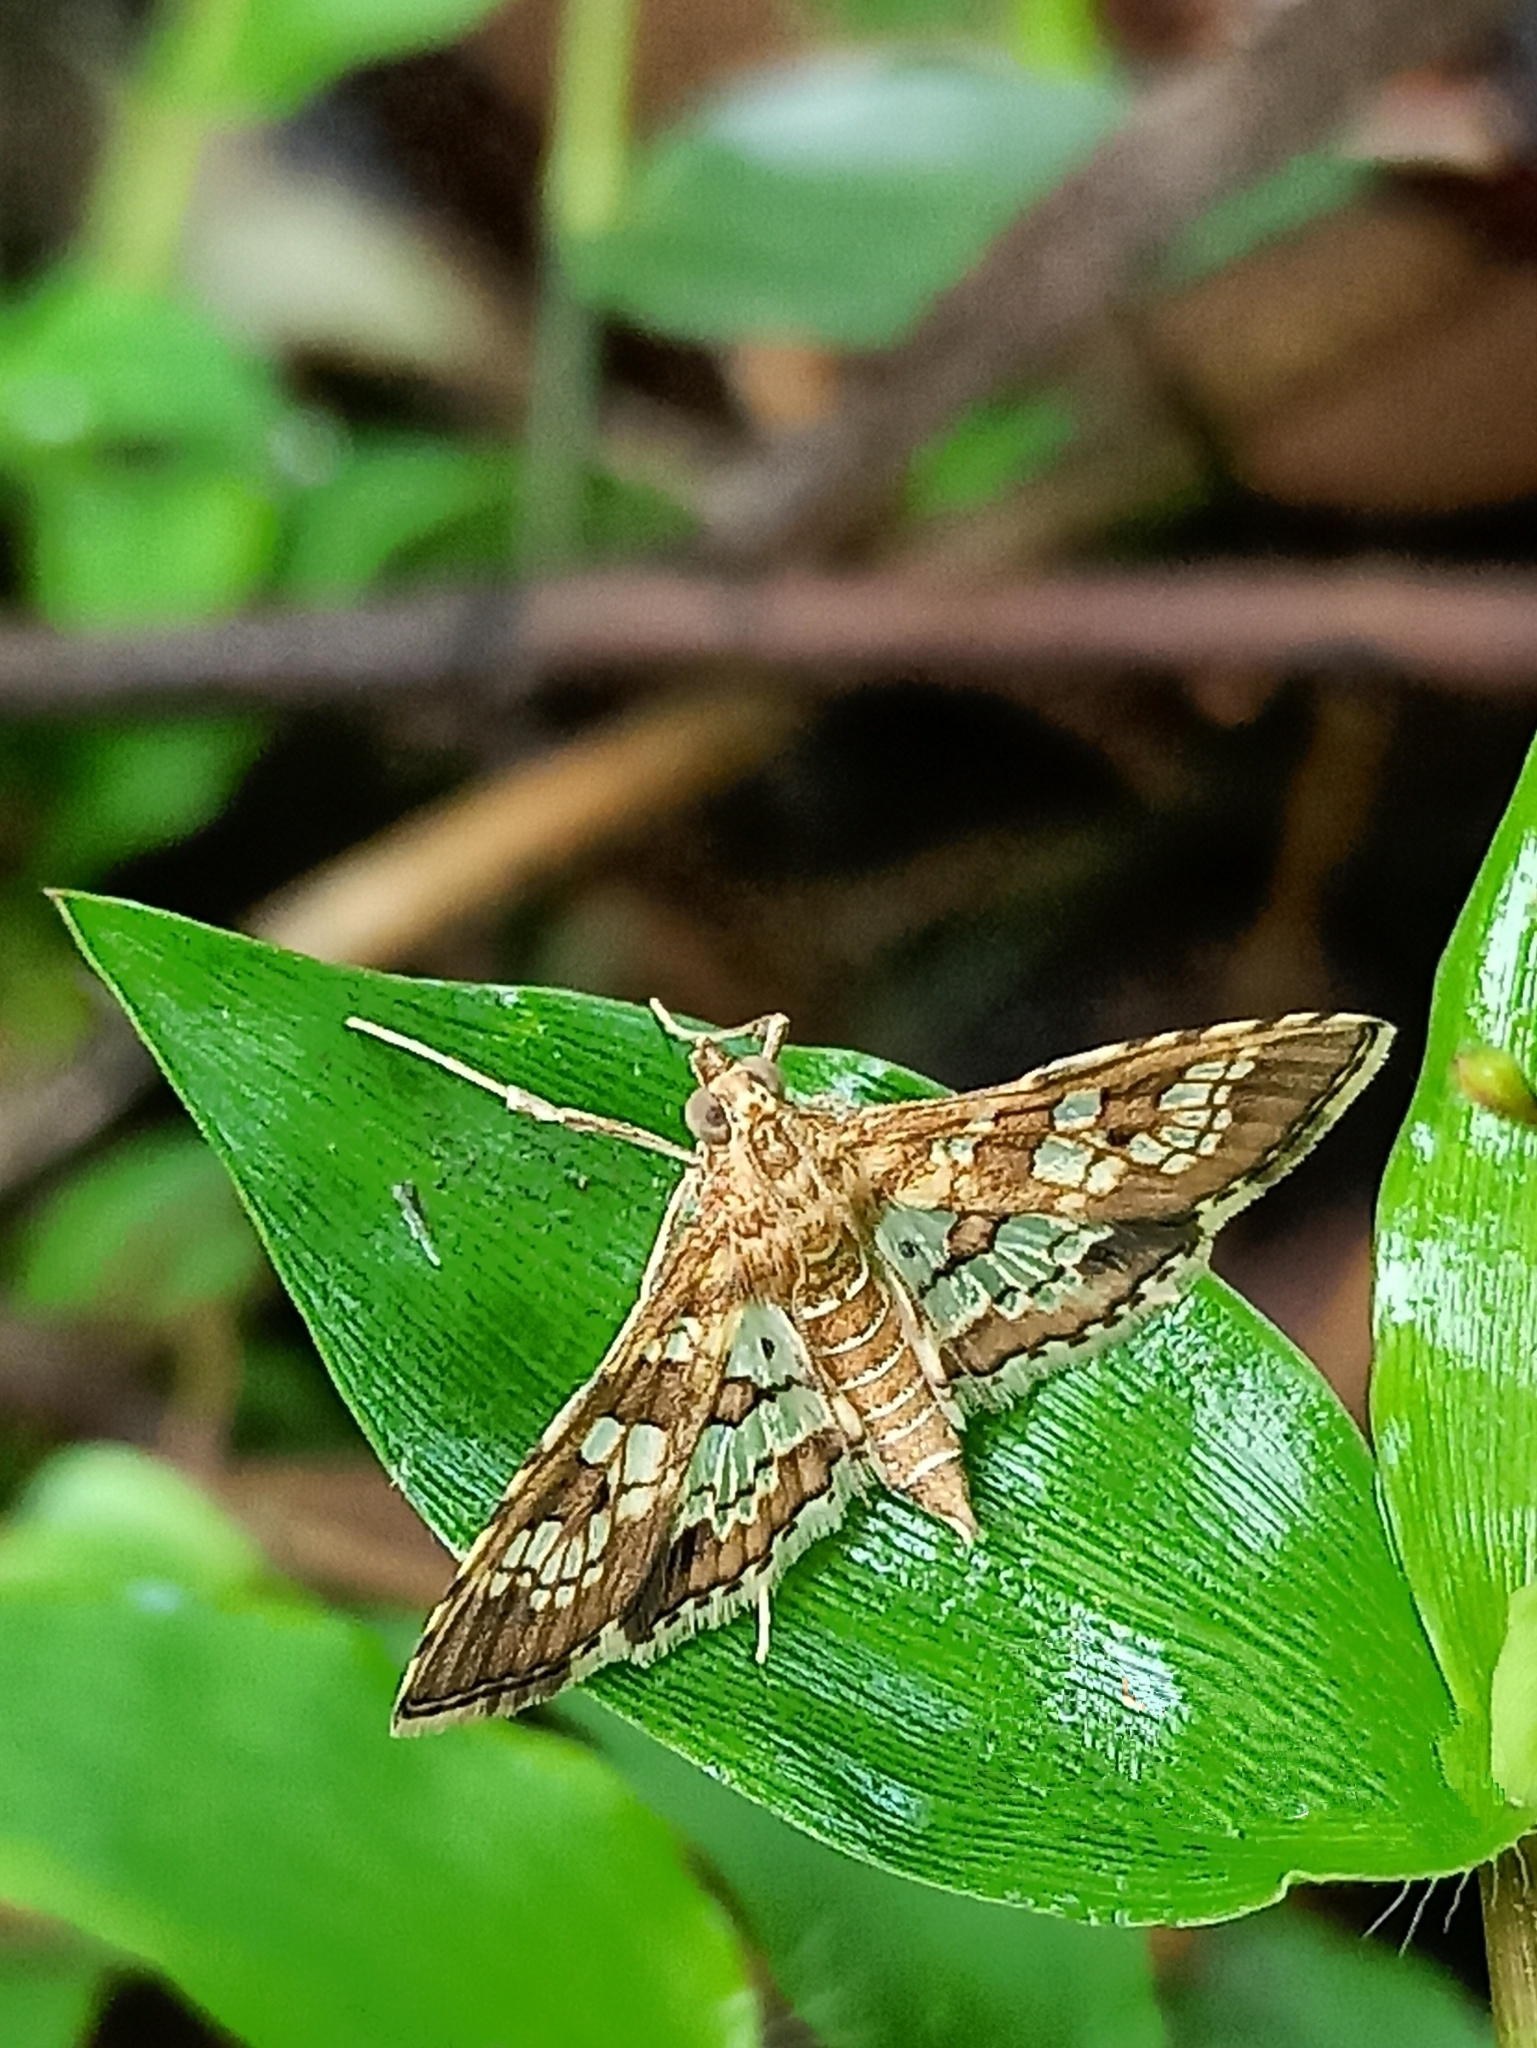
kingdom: Animalia
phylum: Arthropoda
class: Insecta
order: Lepidoptera
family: Crambidae
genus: Sameodes
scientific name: Sameodes cancellalis
